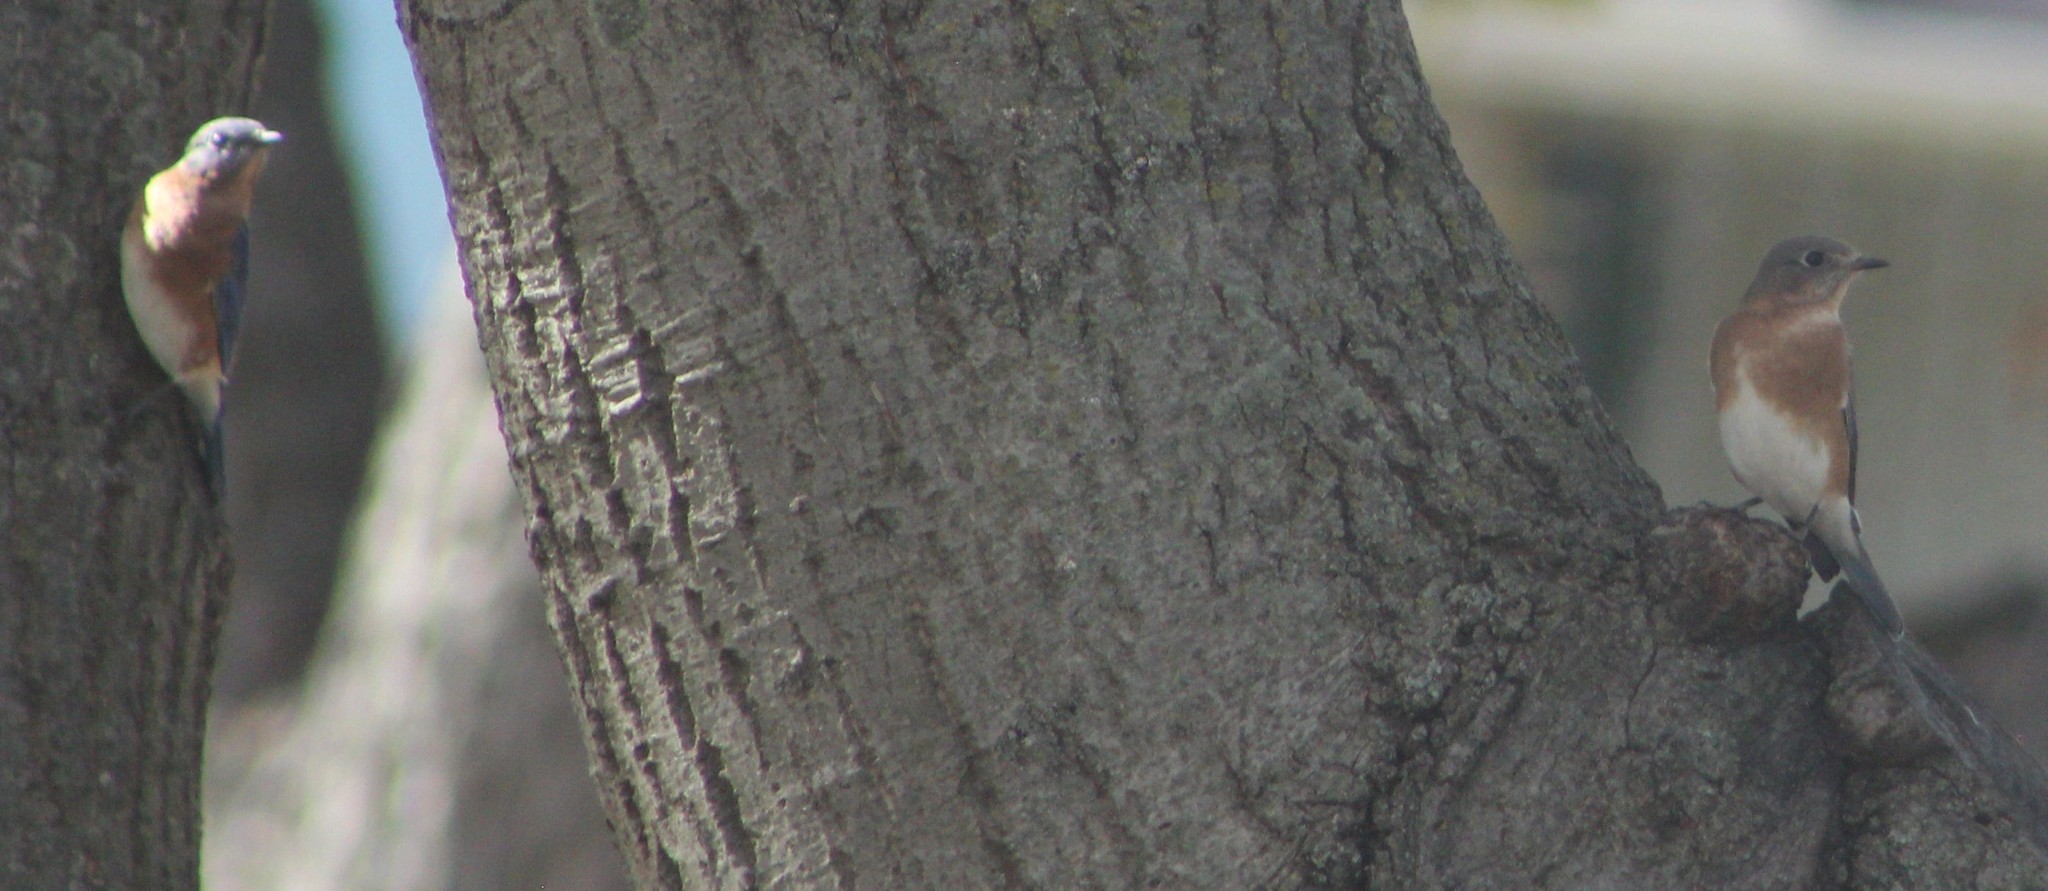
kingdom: Animalia
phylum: Chordata
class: Aves
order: Passeriformes
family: Turdidae
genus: Sialia
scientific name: Sialia sialis
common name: Eastern bluebird
